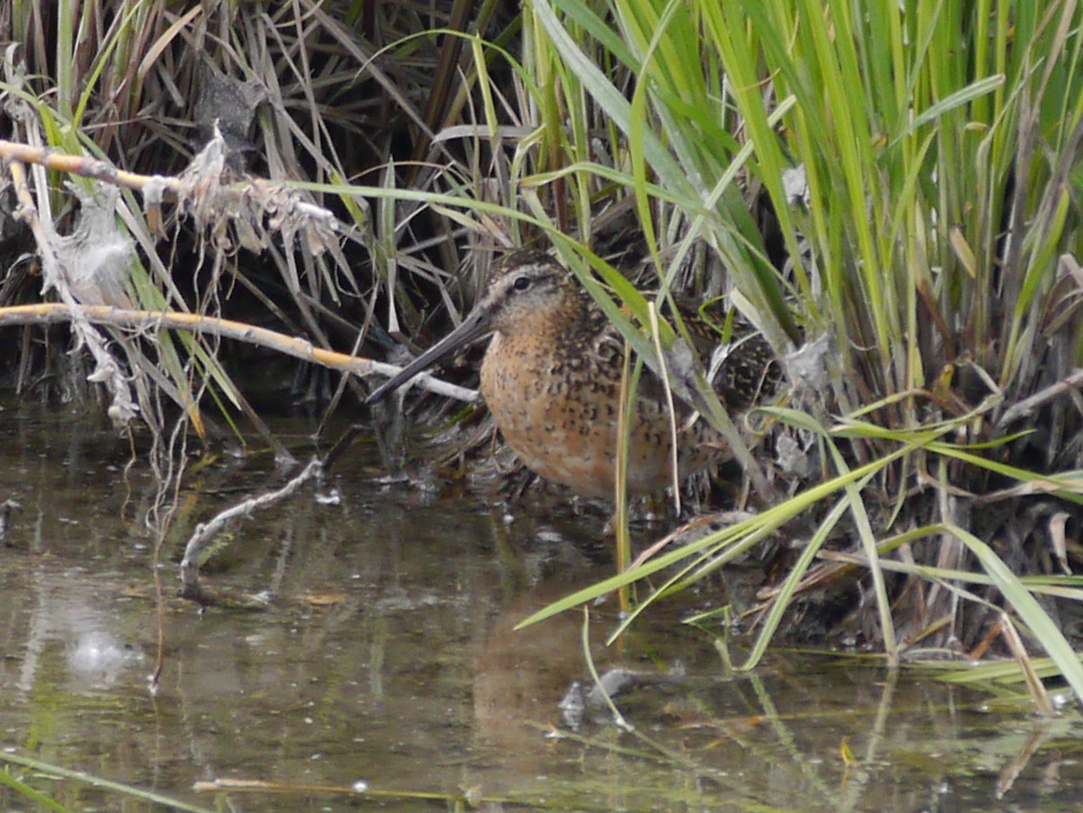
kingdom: Animalia
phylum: Chordata
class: Aves
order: Charadriiformes
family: Scolopacidae
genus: Limnodromus
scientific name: Limnodromus griseus
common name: Short-billed dowitcher
